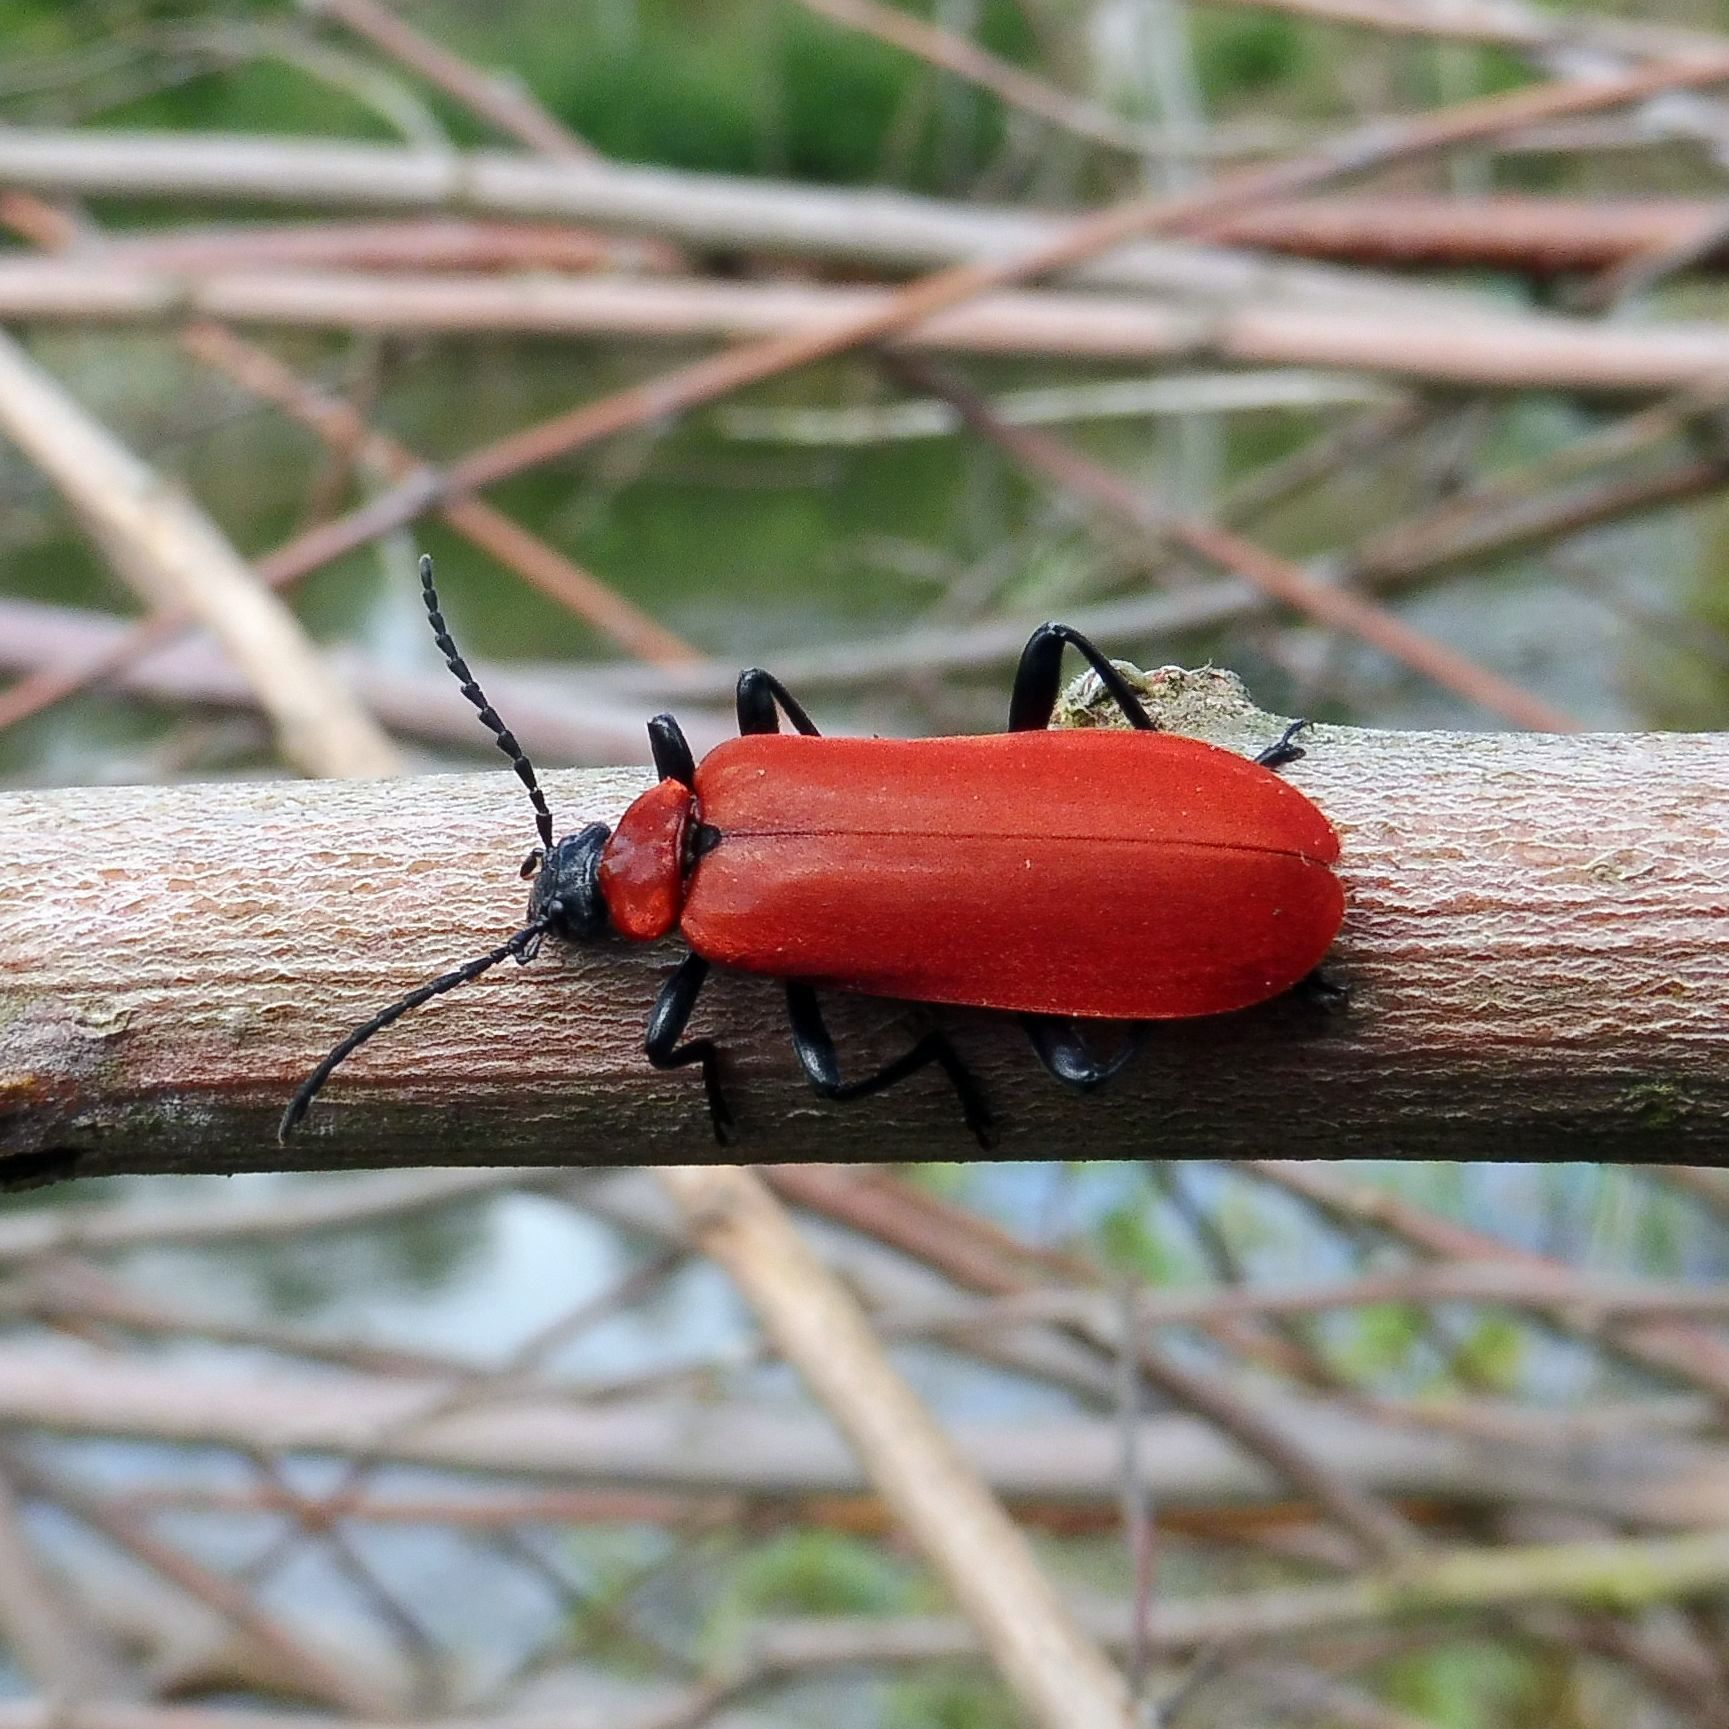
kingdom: Animalia
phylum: Arthropoda
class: Insecta
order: Coleoptera
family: Pyrochroidae
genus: Pyrochroa
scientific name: Pyrochroa coccinea
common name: Black-headed cardinal beetle
